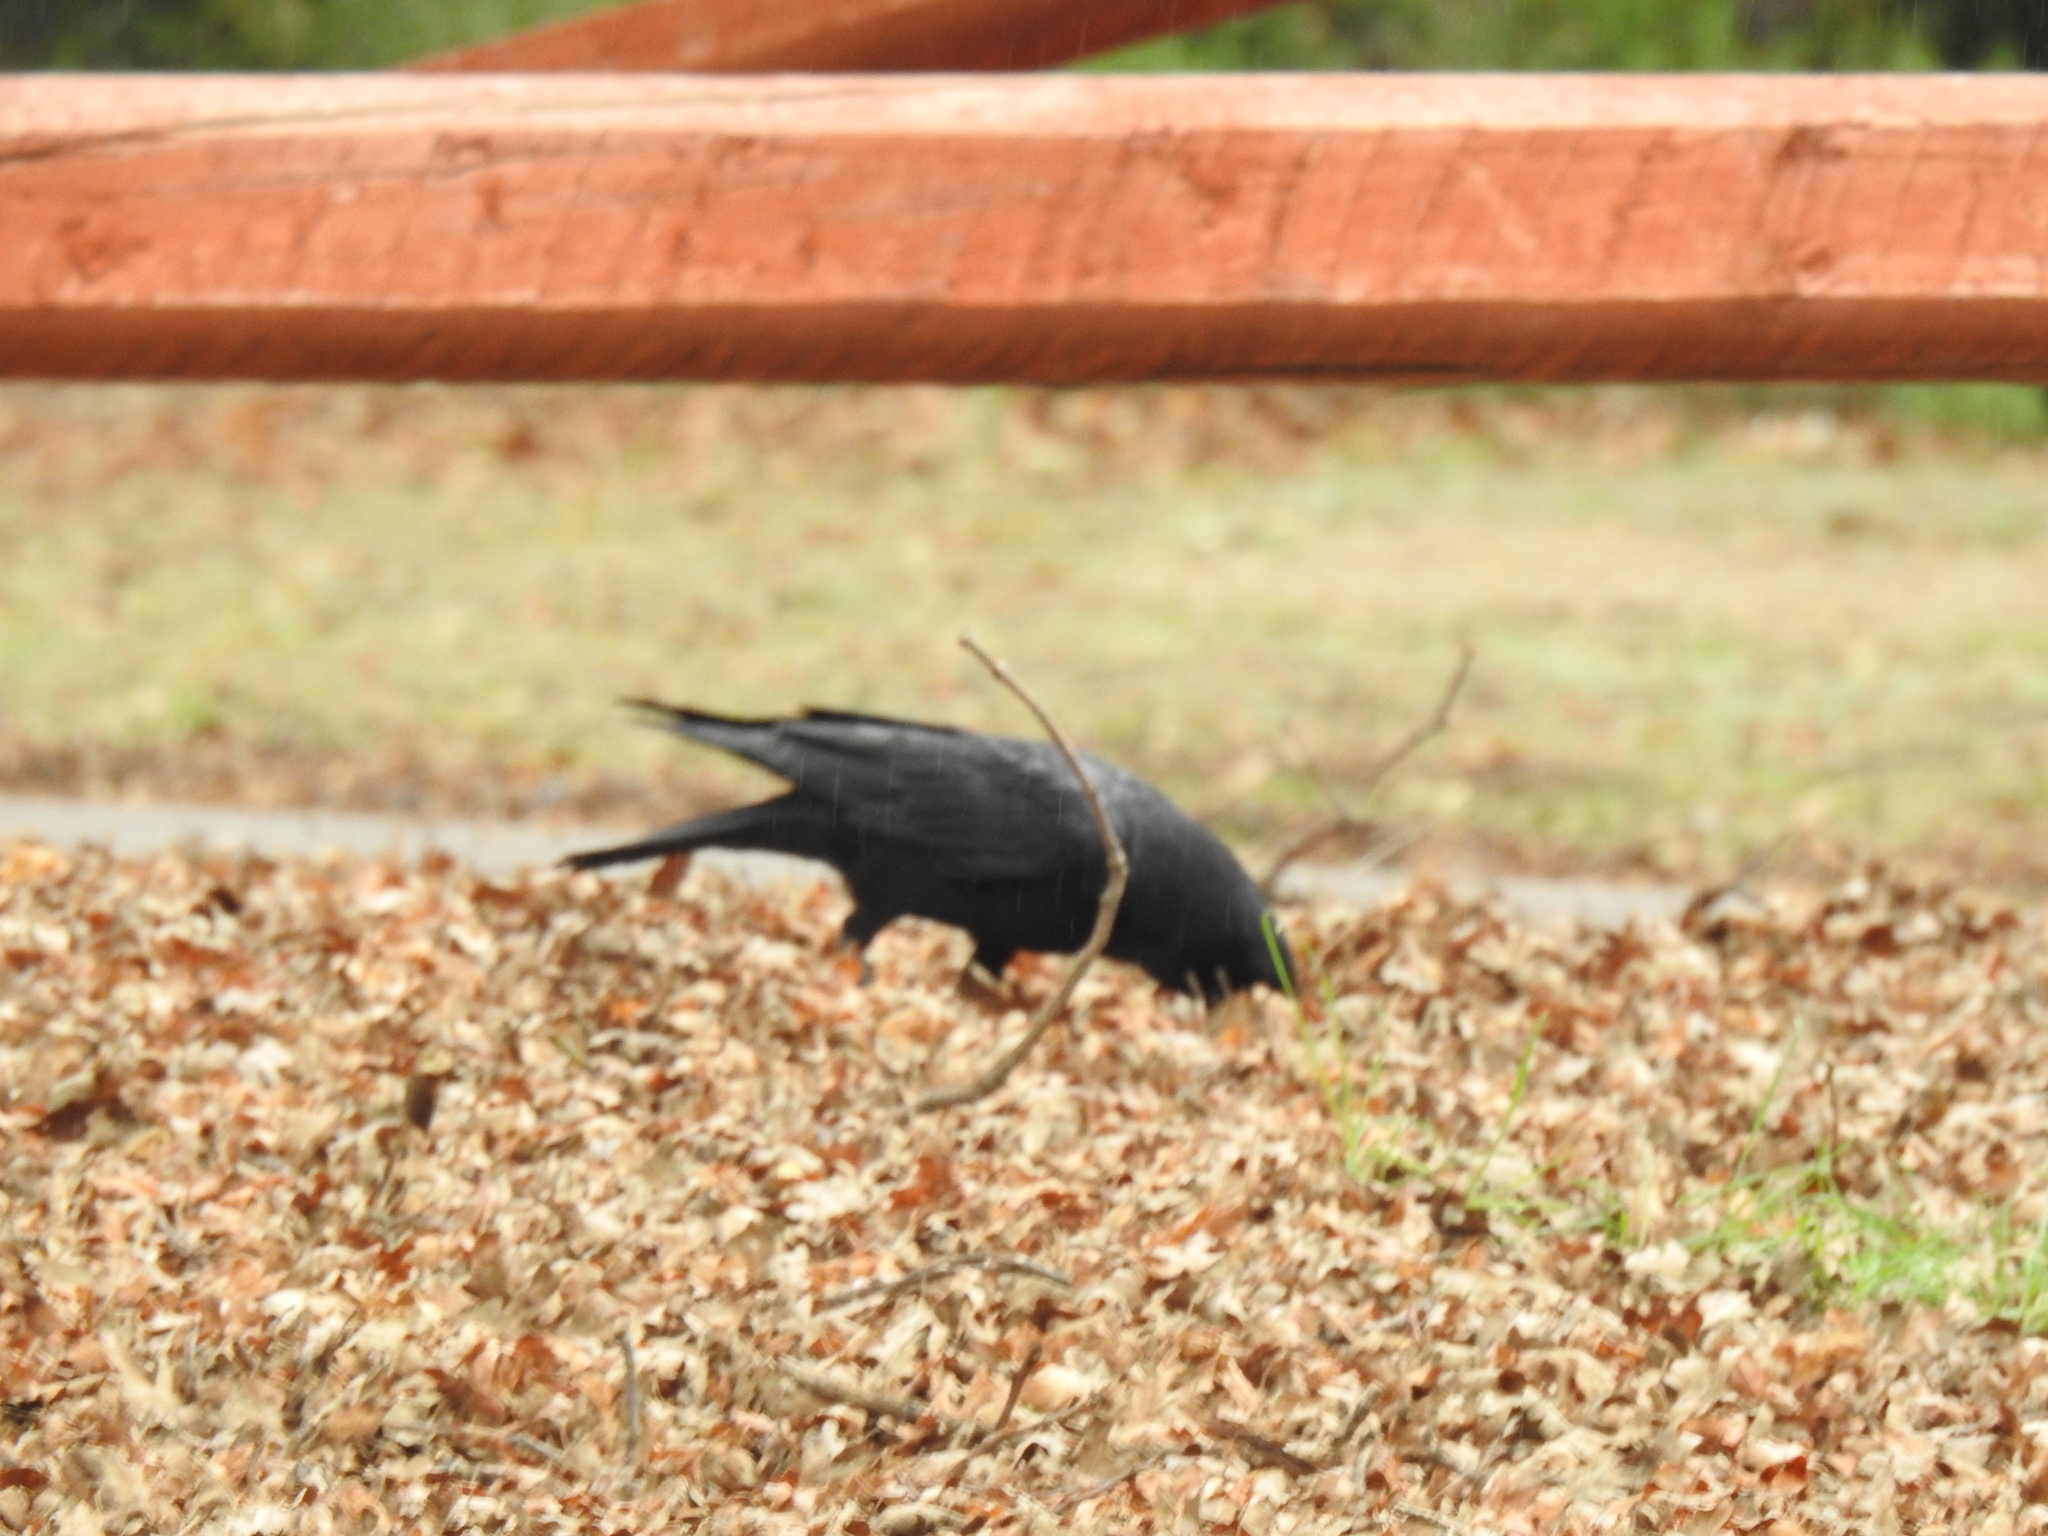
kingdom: Animalia
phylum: Chordata
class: Aves
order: Passeriformes
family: Corvidae
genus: Corvus
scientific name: Corvus brachyrhynchos
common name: American crow
